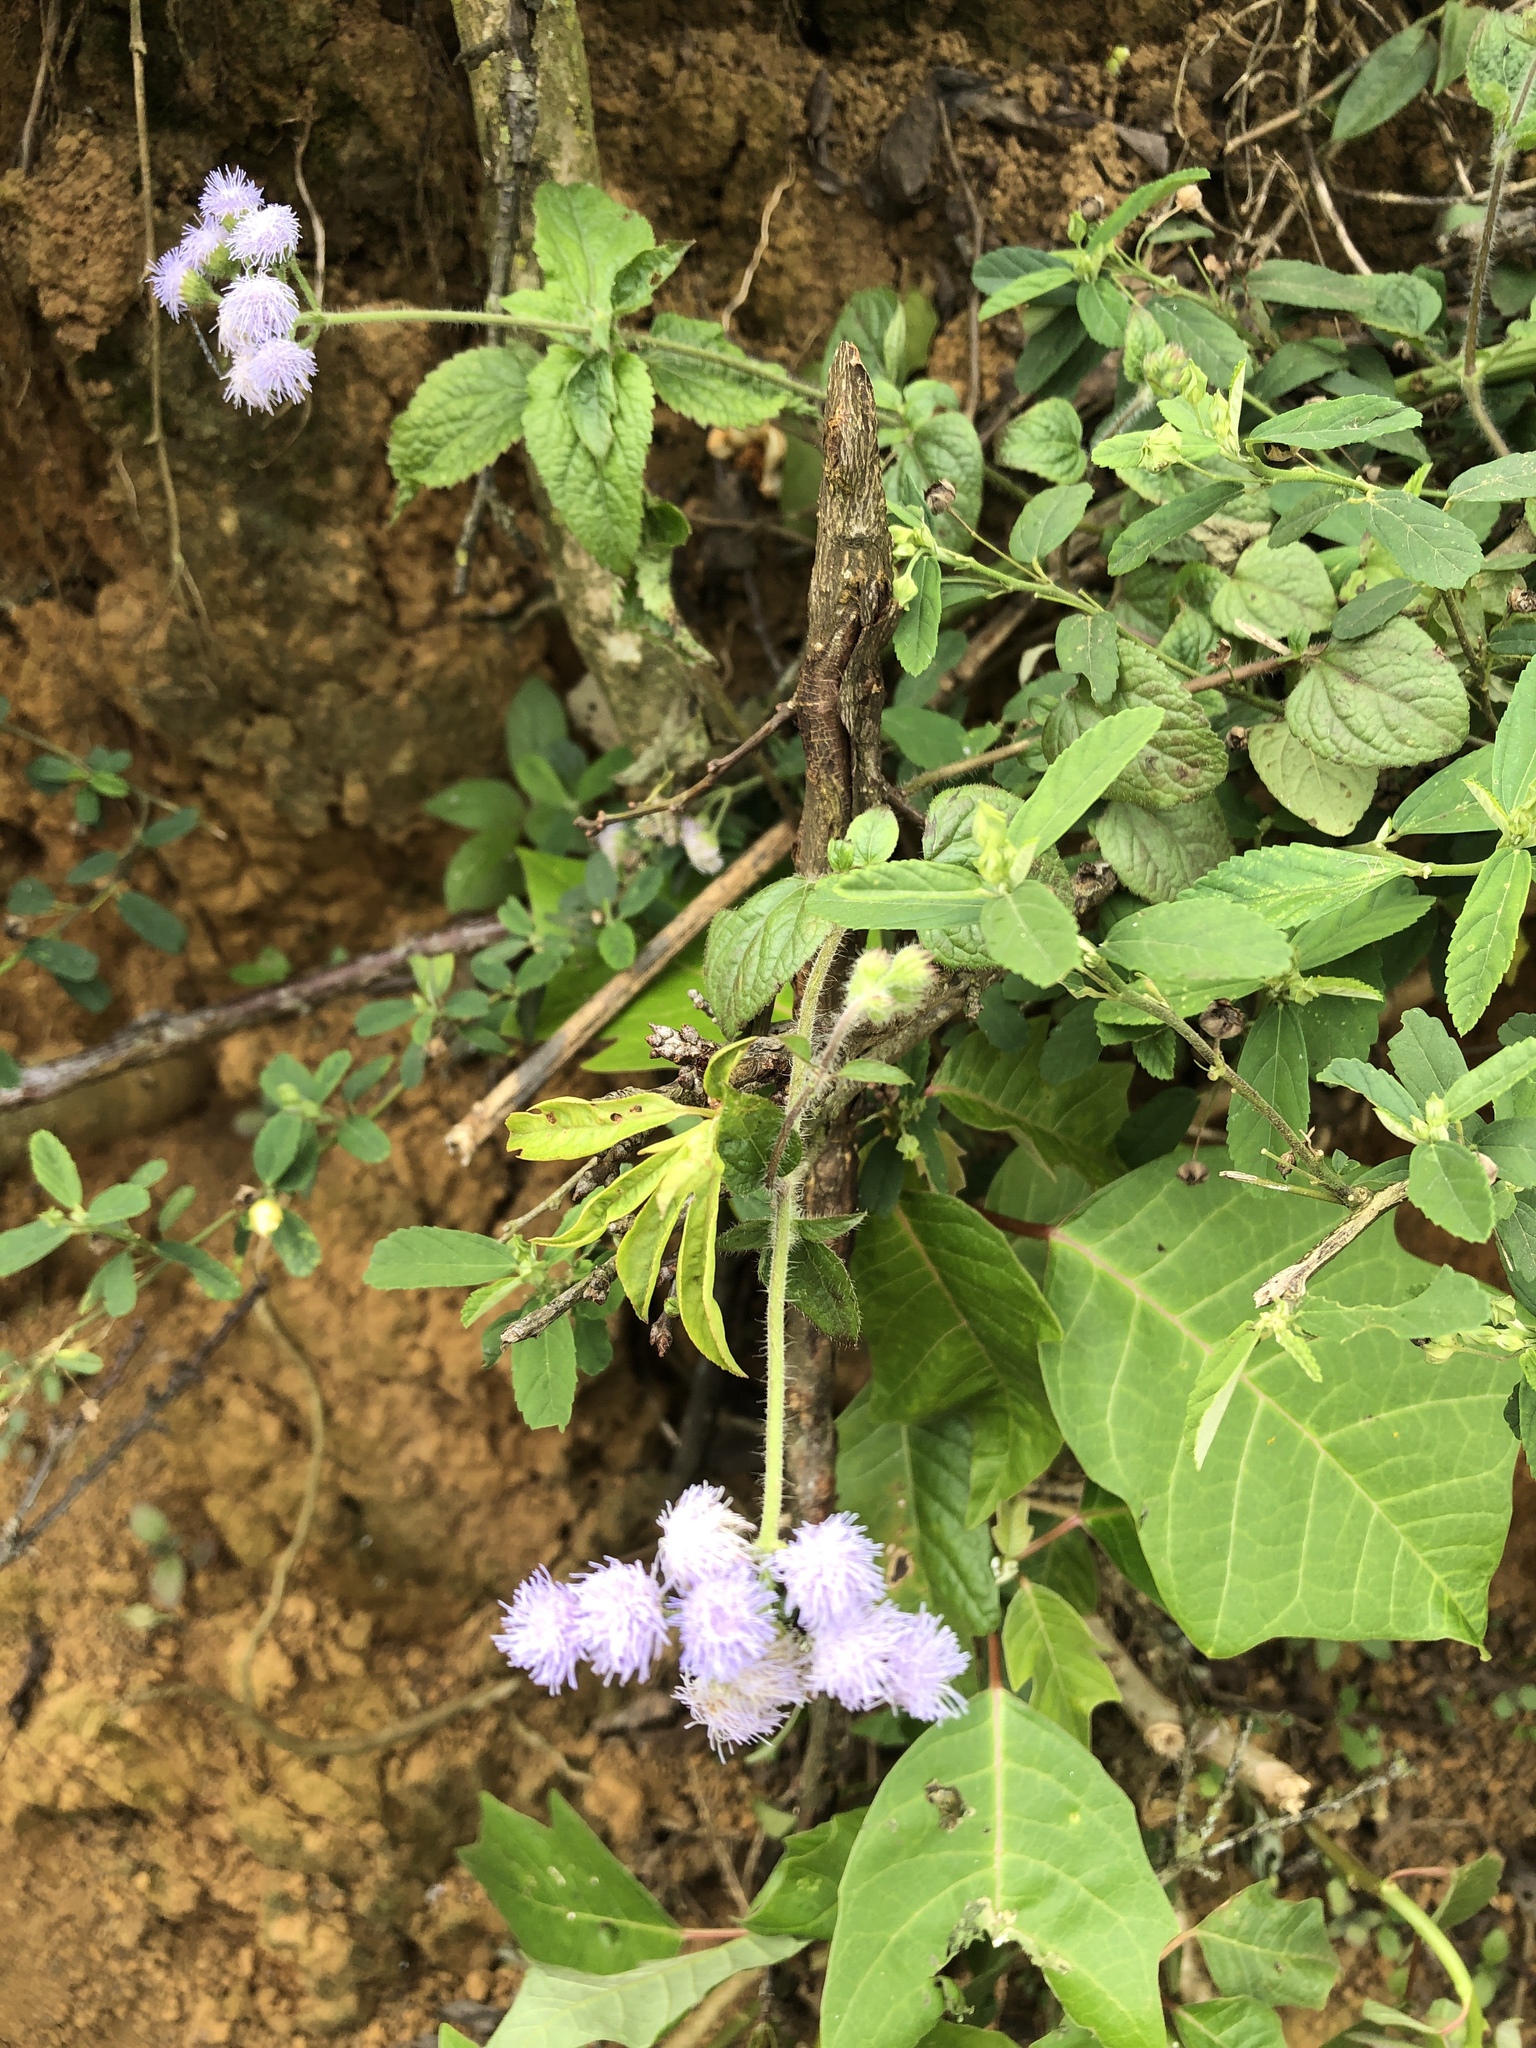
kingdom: Plantae
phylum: Tracheophyta
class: Magnoliopsida
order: Asterales
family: Asteraceae
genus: Ageratum
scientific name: Ageratum houstonianum
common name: Bluemink
